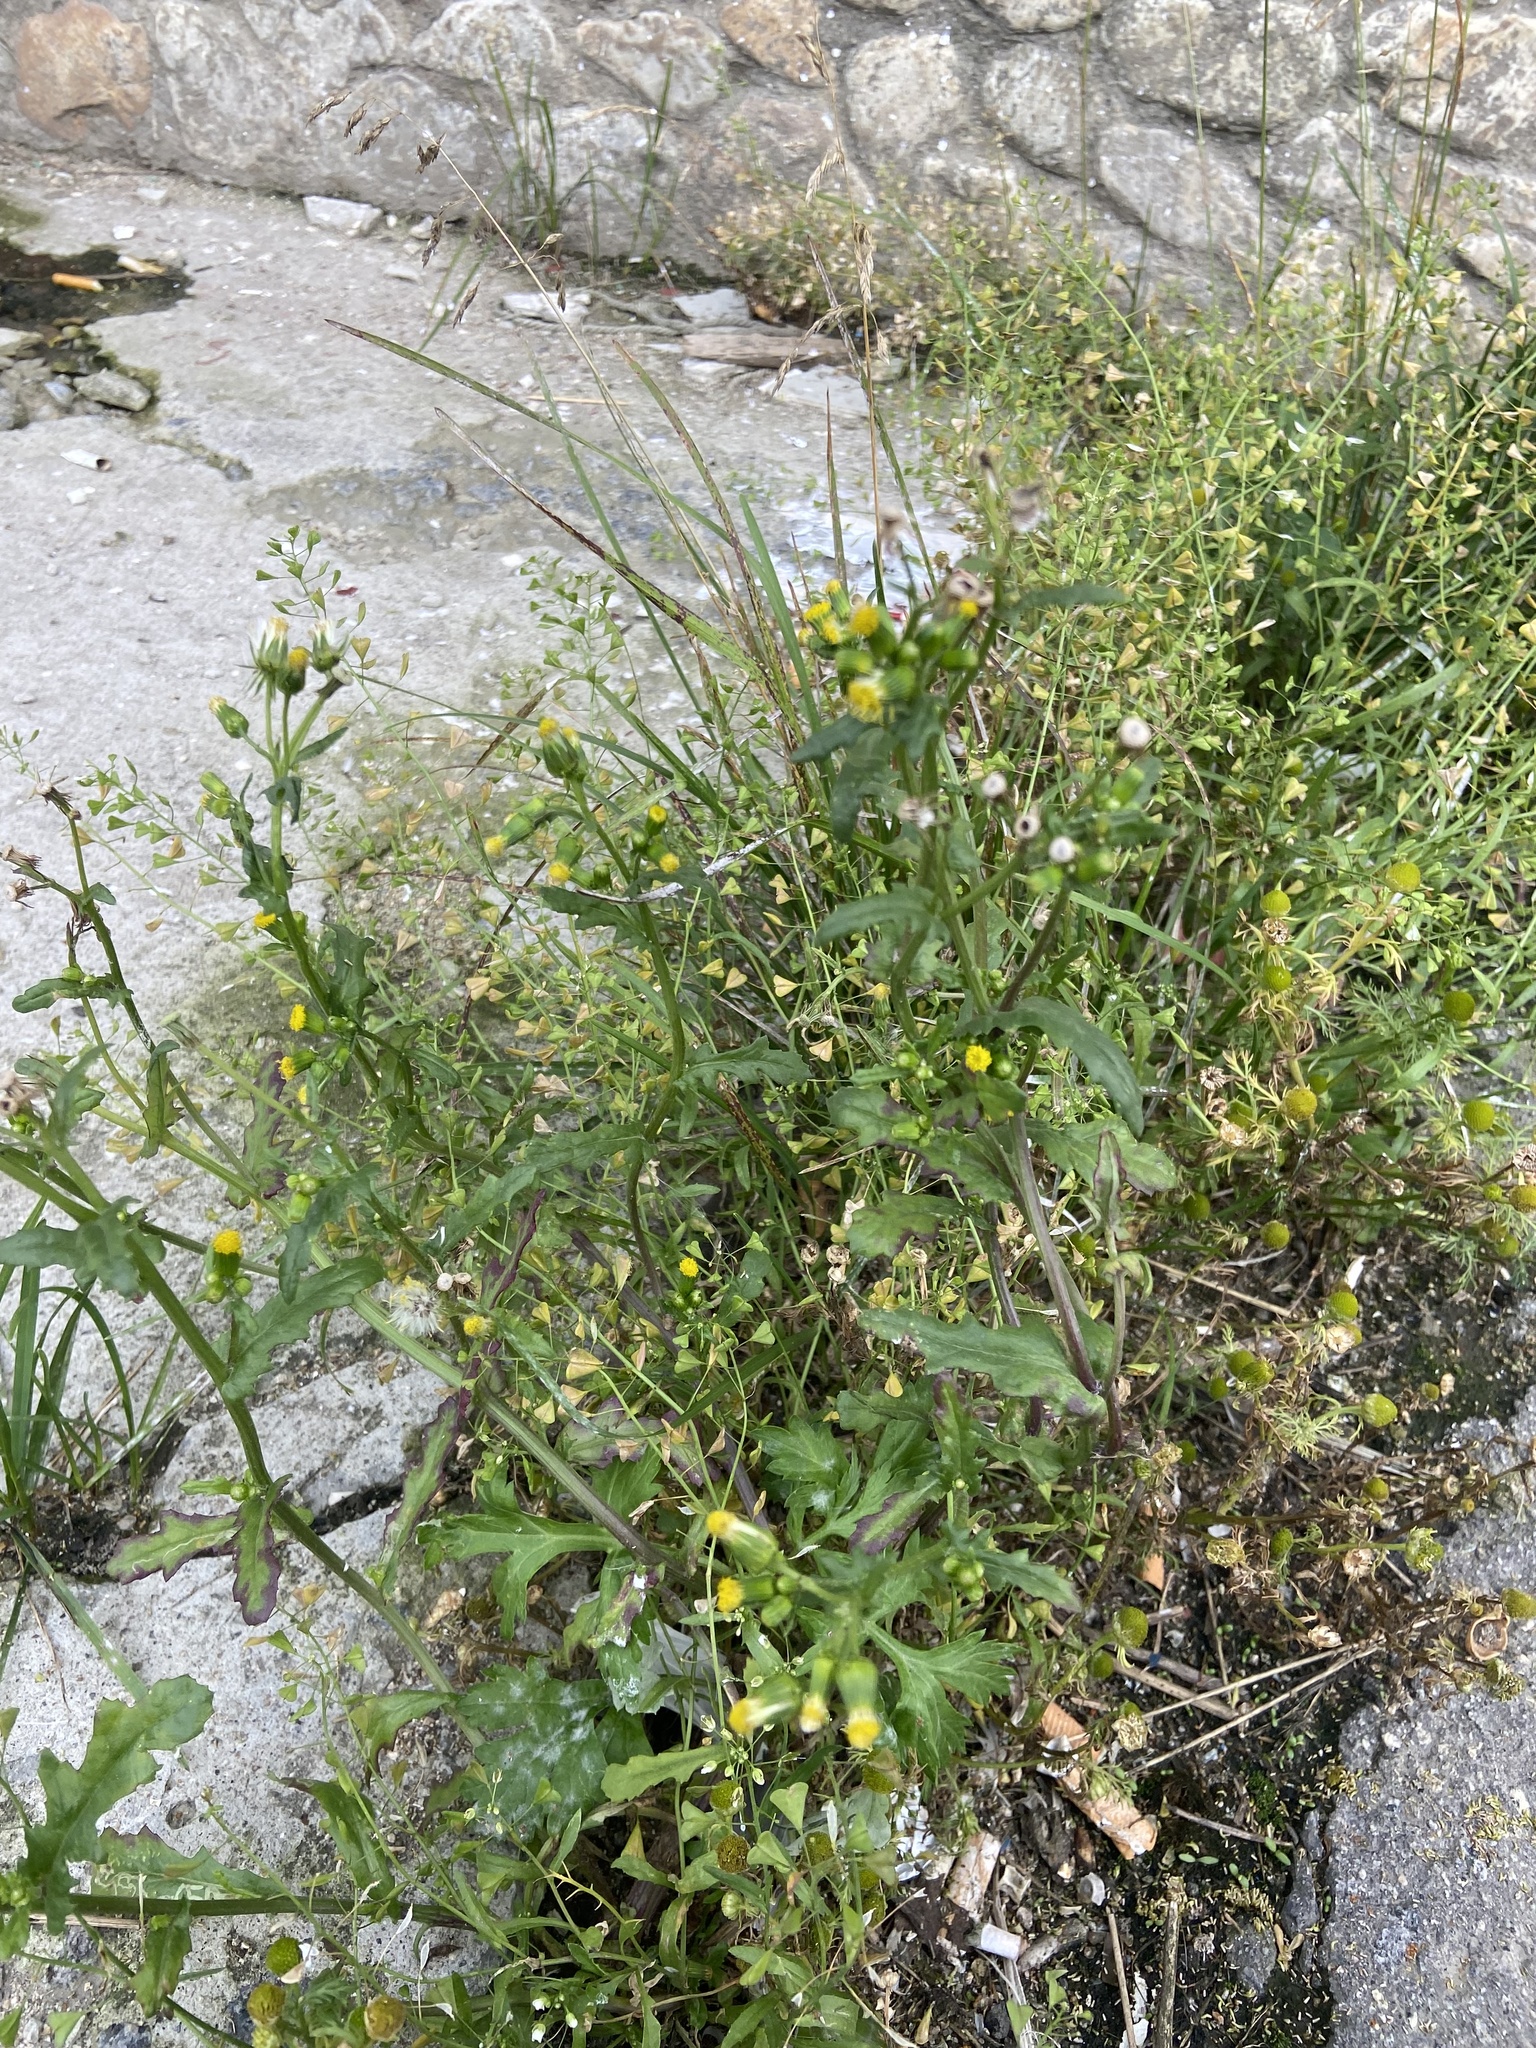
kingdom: Plantae
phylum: Tracheophyta
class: Magnoliopsida
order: Asterales
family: Asteraceae
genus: Senecio
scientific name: Senecio vulgaris
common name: Old-man-in-the-spring
